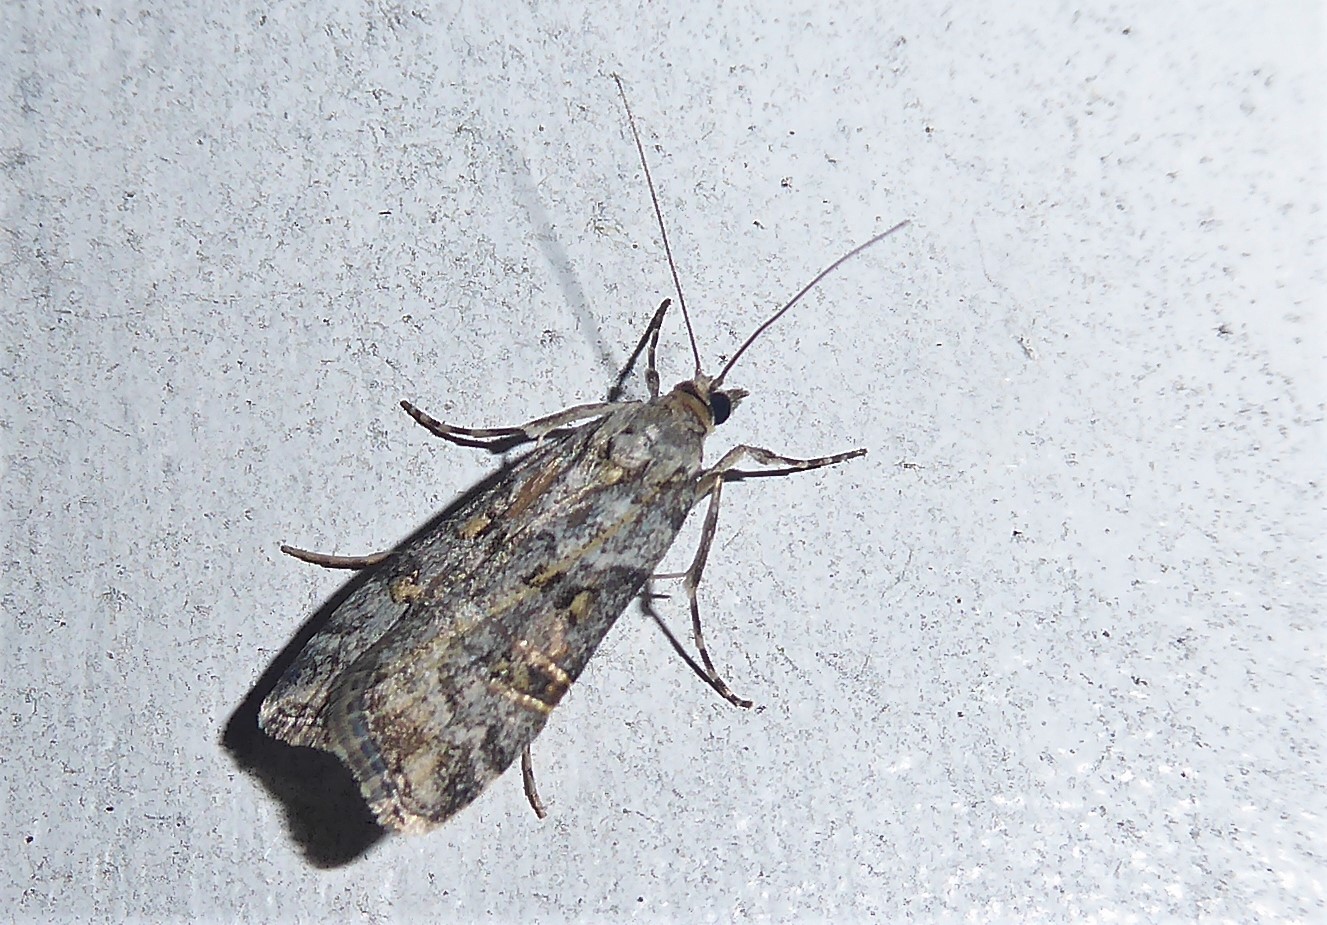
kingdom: Animalia
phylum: Arthropoda
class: Insecta
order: Lepidoptera
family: Crambidae
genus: Scoparia
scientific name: Scoparia tetracycla
